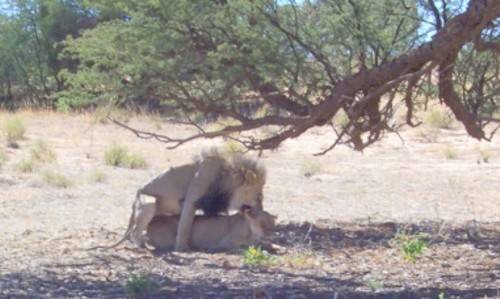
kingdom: Animalia
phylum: Chordata
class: Mammalia
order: Carnivora
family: Felidae
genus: Panthera
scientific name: Panthera leo
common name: Lion
